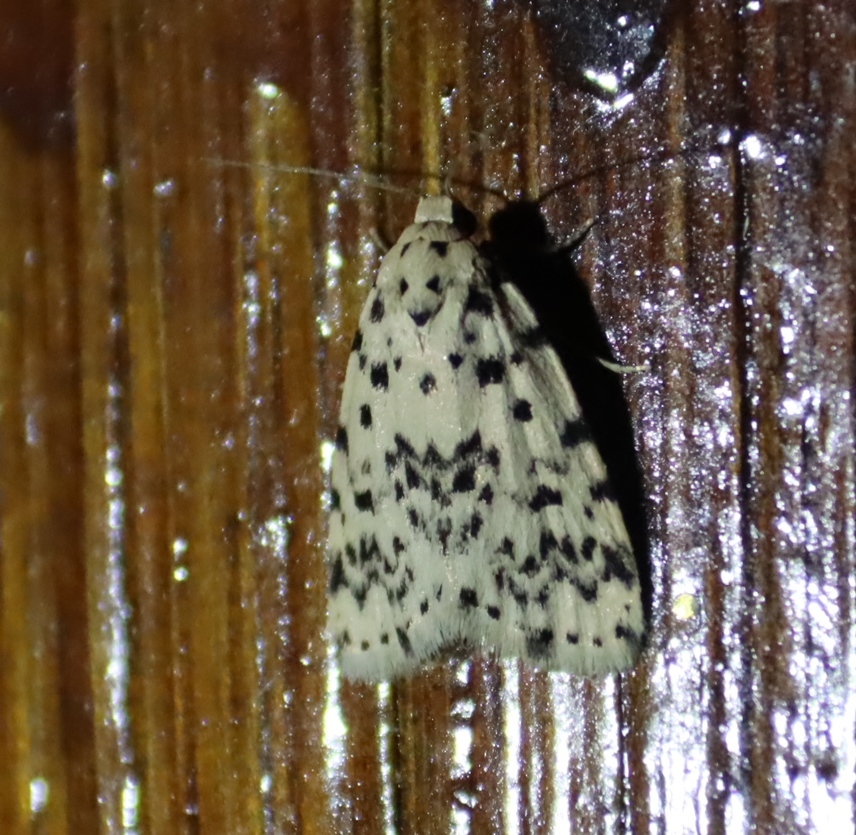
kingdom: Animalia
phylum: Arthropoda
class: Insecta
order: Lepidoptera
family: Erebidae
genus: Siccia
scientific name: Siccia sordida
